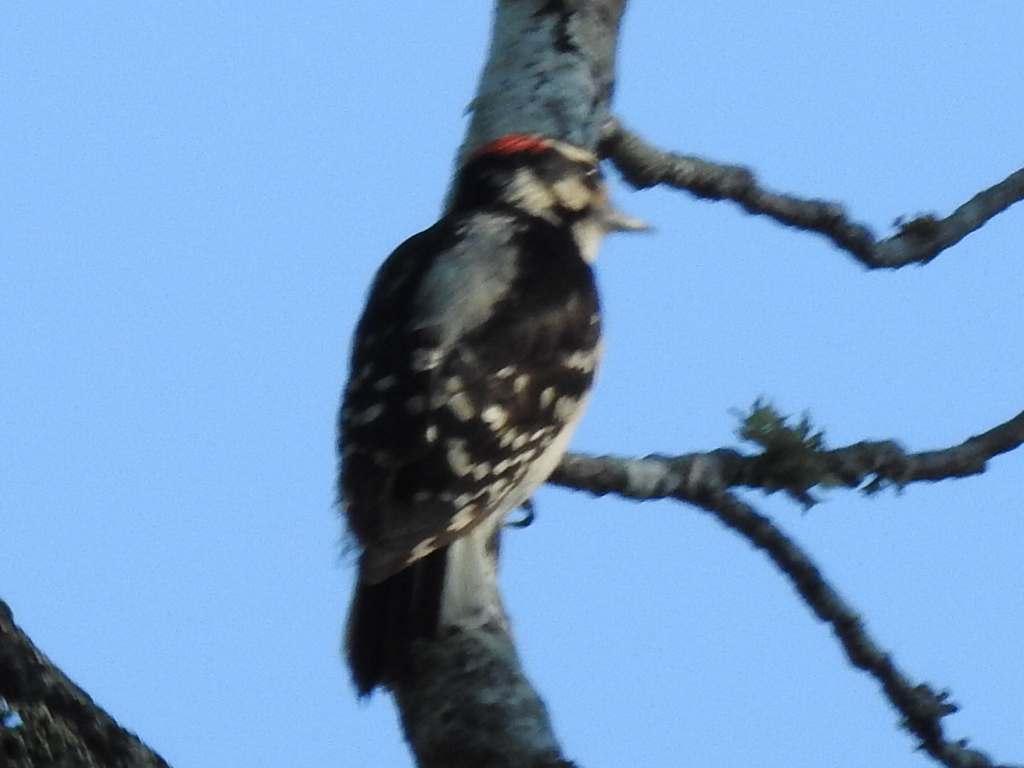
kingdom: Animalia
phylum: Chordata
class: Aves
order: Piciformes
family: Picidae
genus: Dryobates
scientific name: Dryobates pubescens
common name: Downy woodpecker
